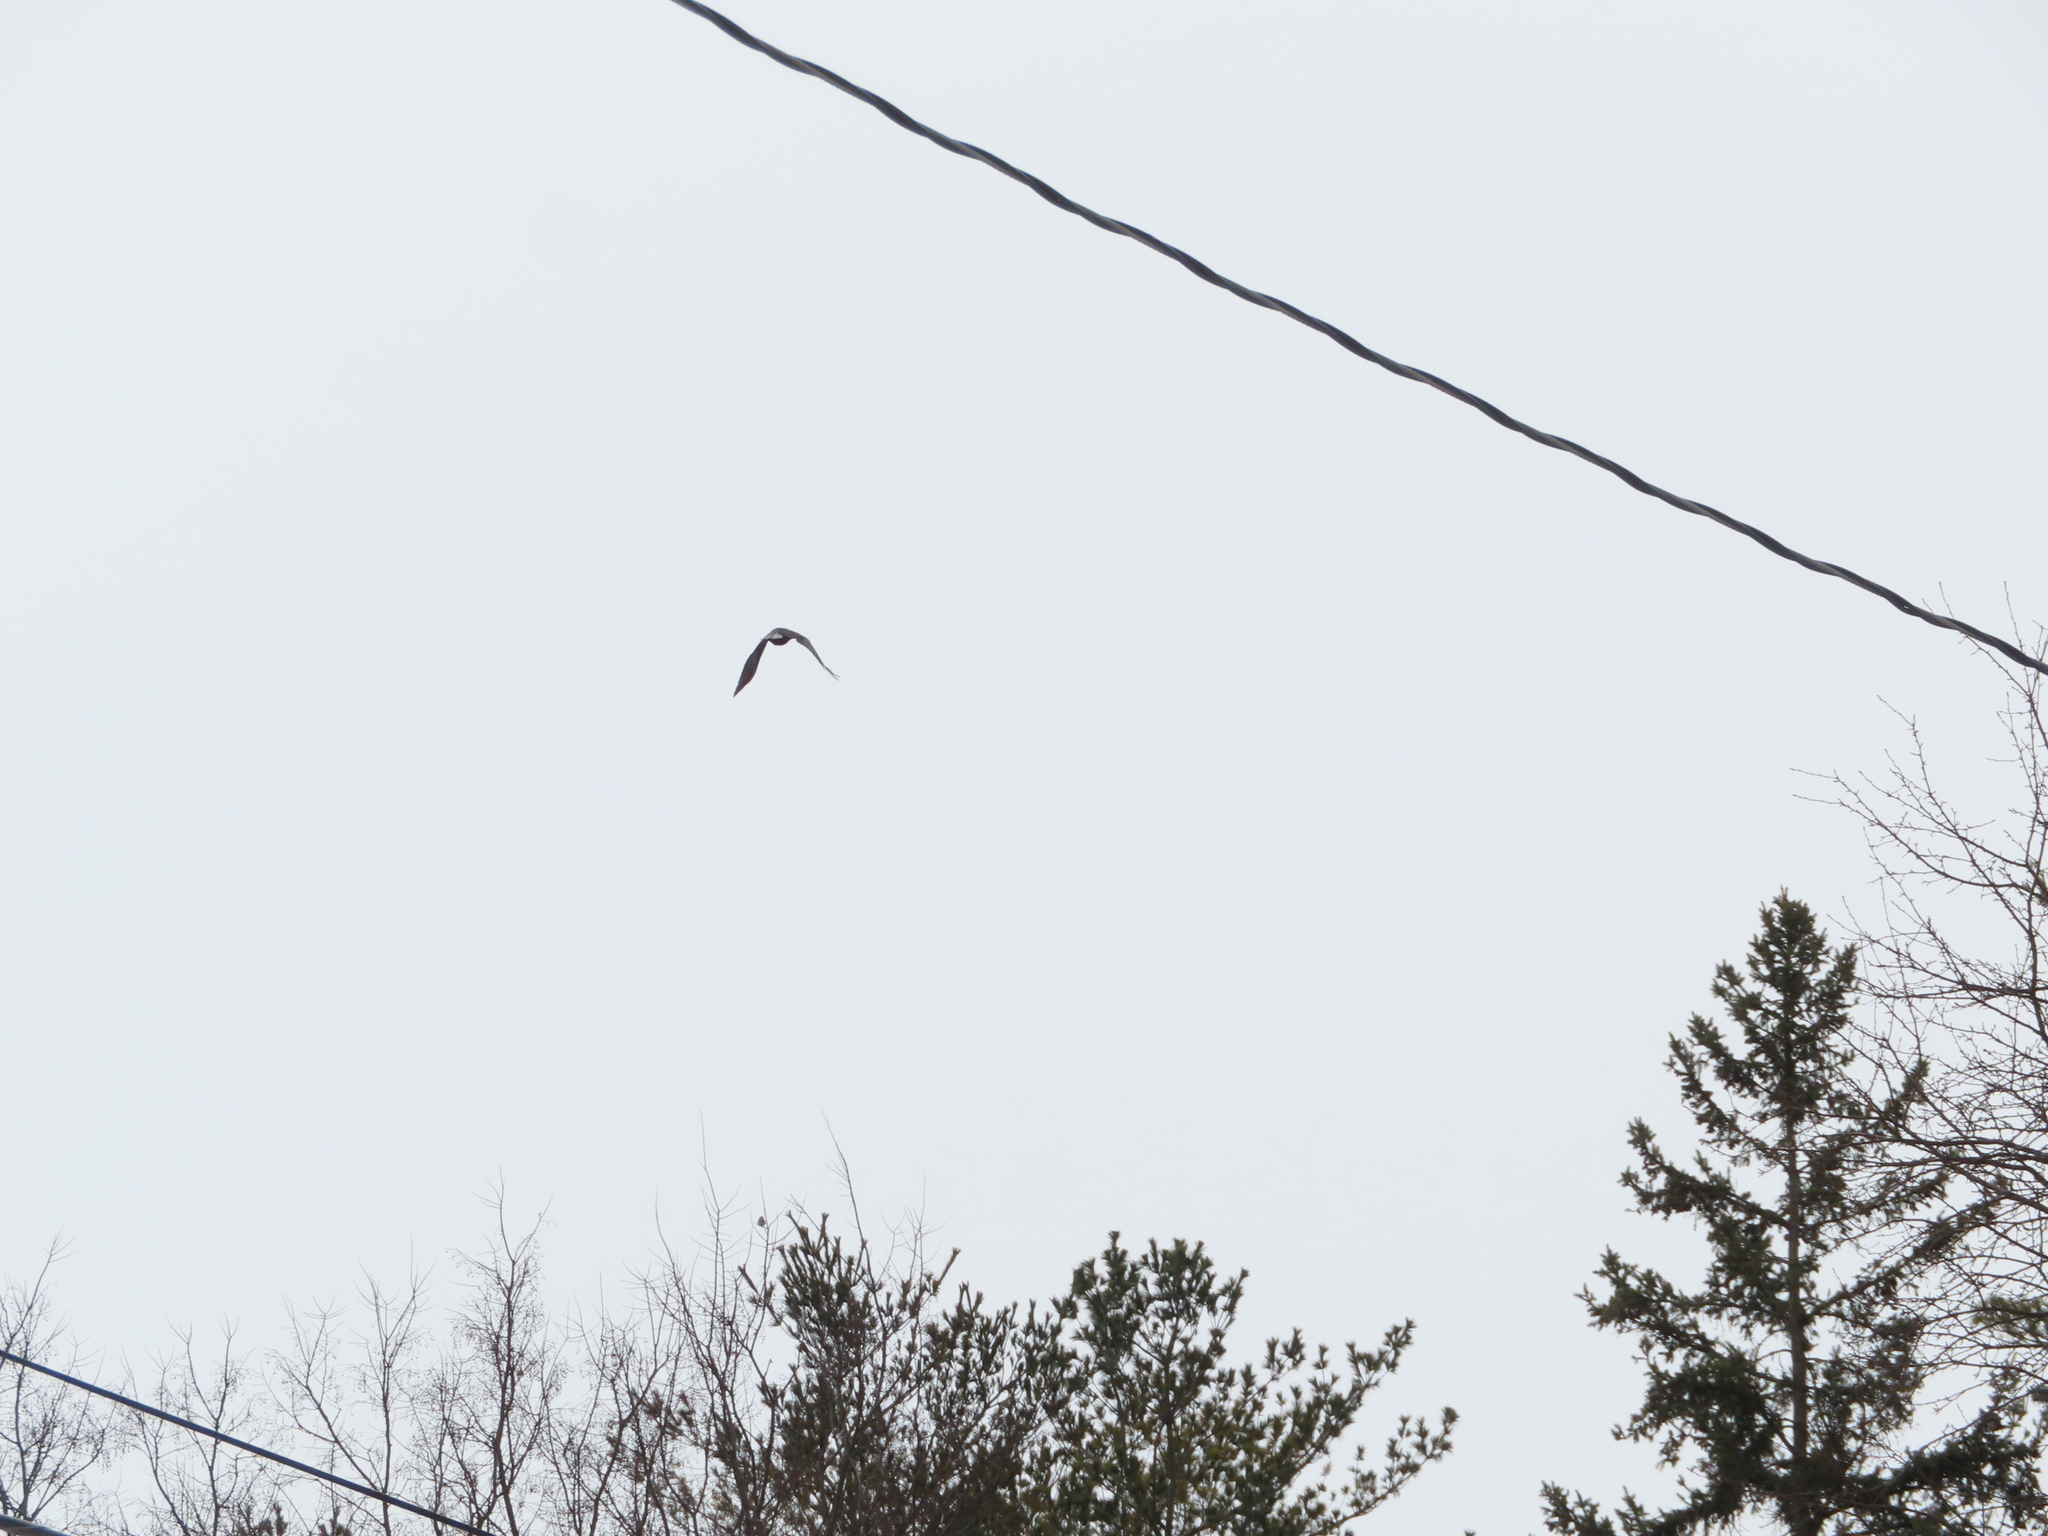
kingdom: Animalia
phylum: Chordata
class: Aves
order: Accipitriformes
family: Cathartidae
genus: Cathartes
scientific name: Cathartes aura
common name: Turkey vulture
